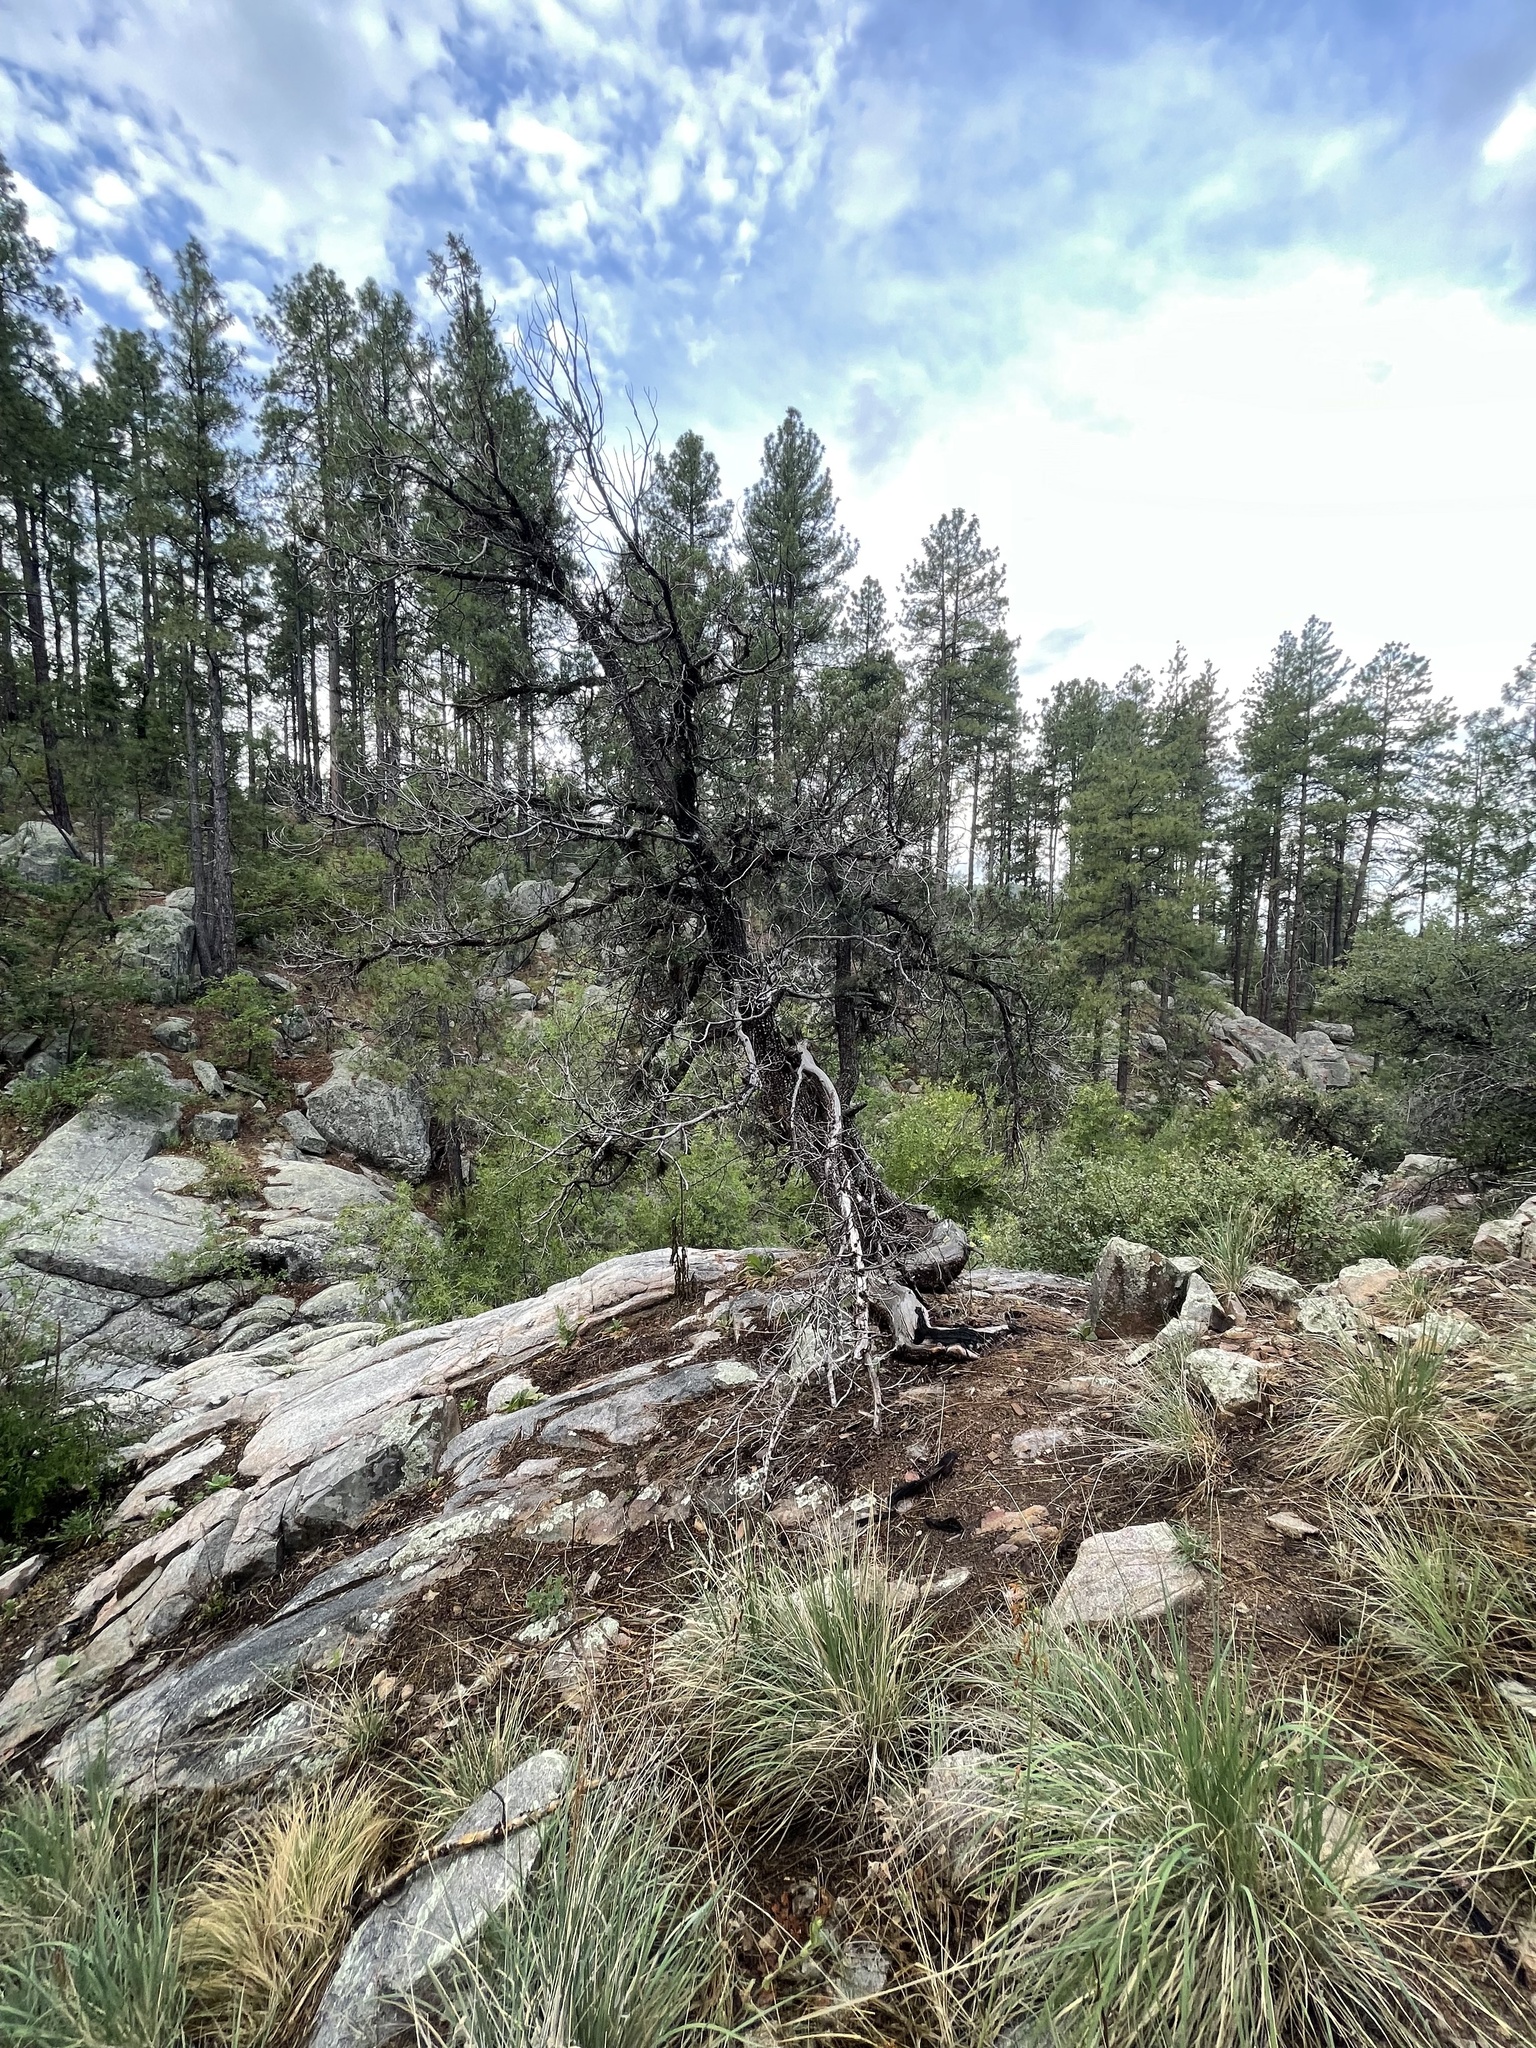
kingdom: Plantae
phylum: Tracheophyta
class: Pinopsida
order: Pinales
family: Cupressaceae
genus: Juniperus
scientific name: Juniperus deppeana
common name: Alligator juniper
